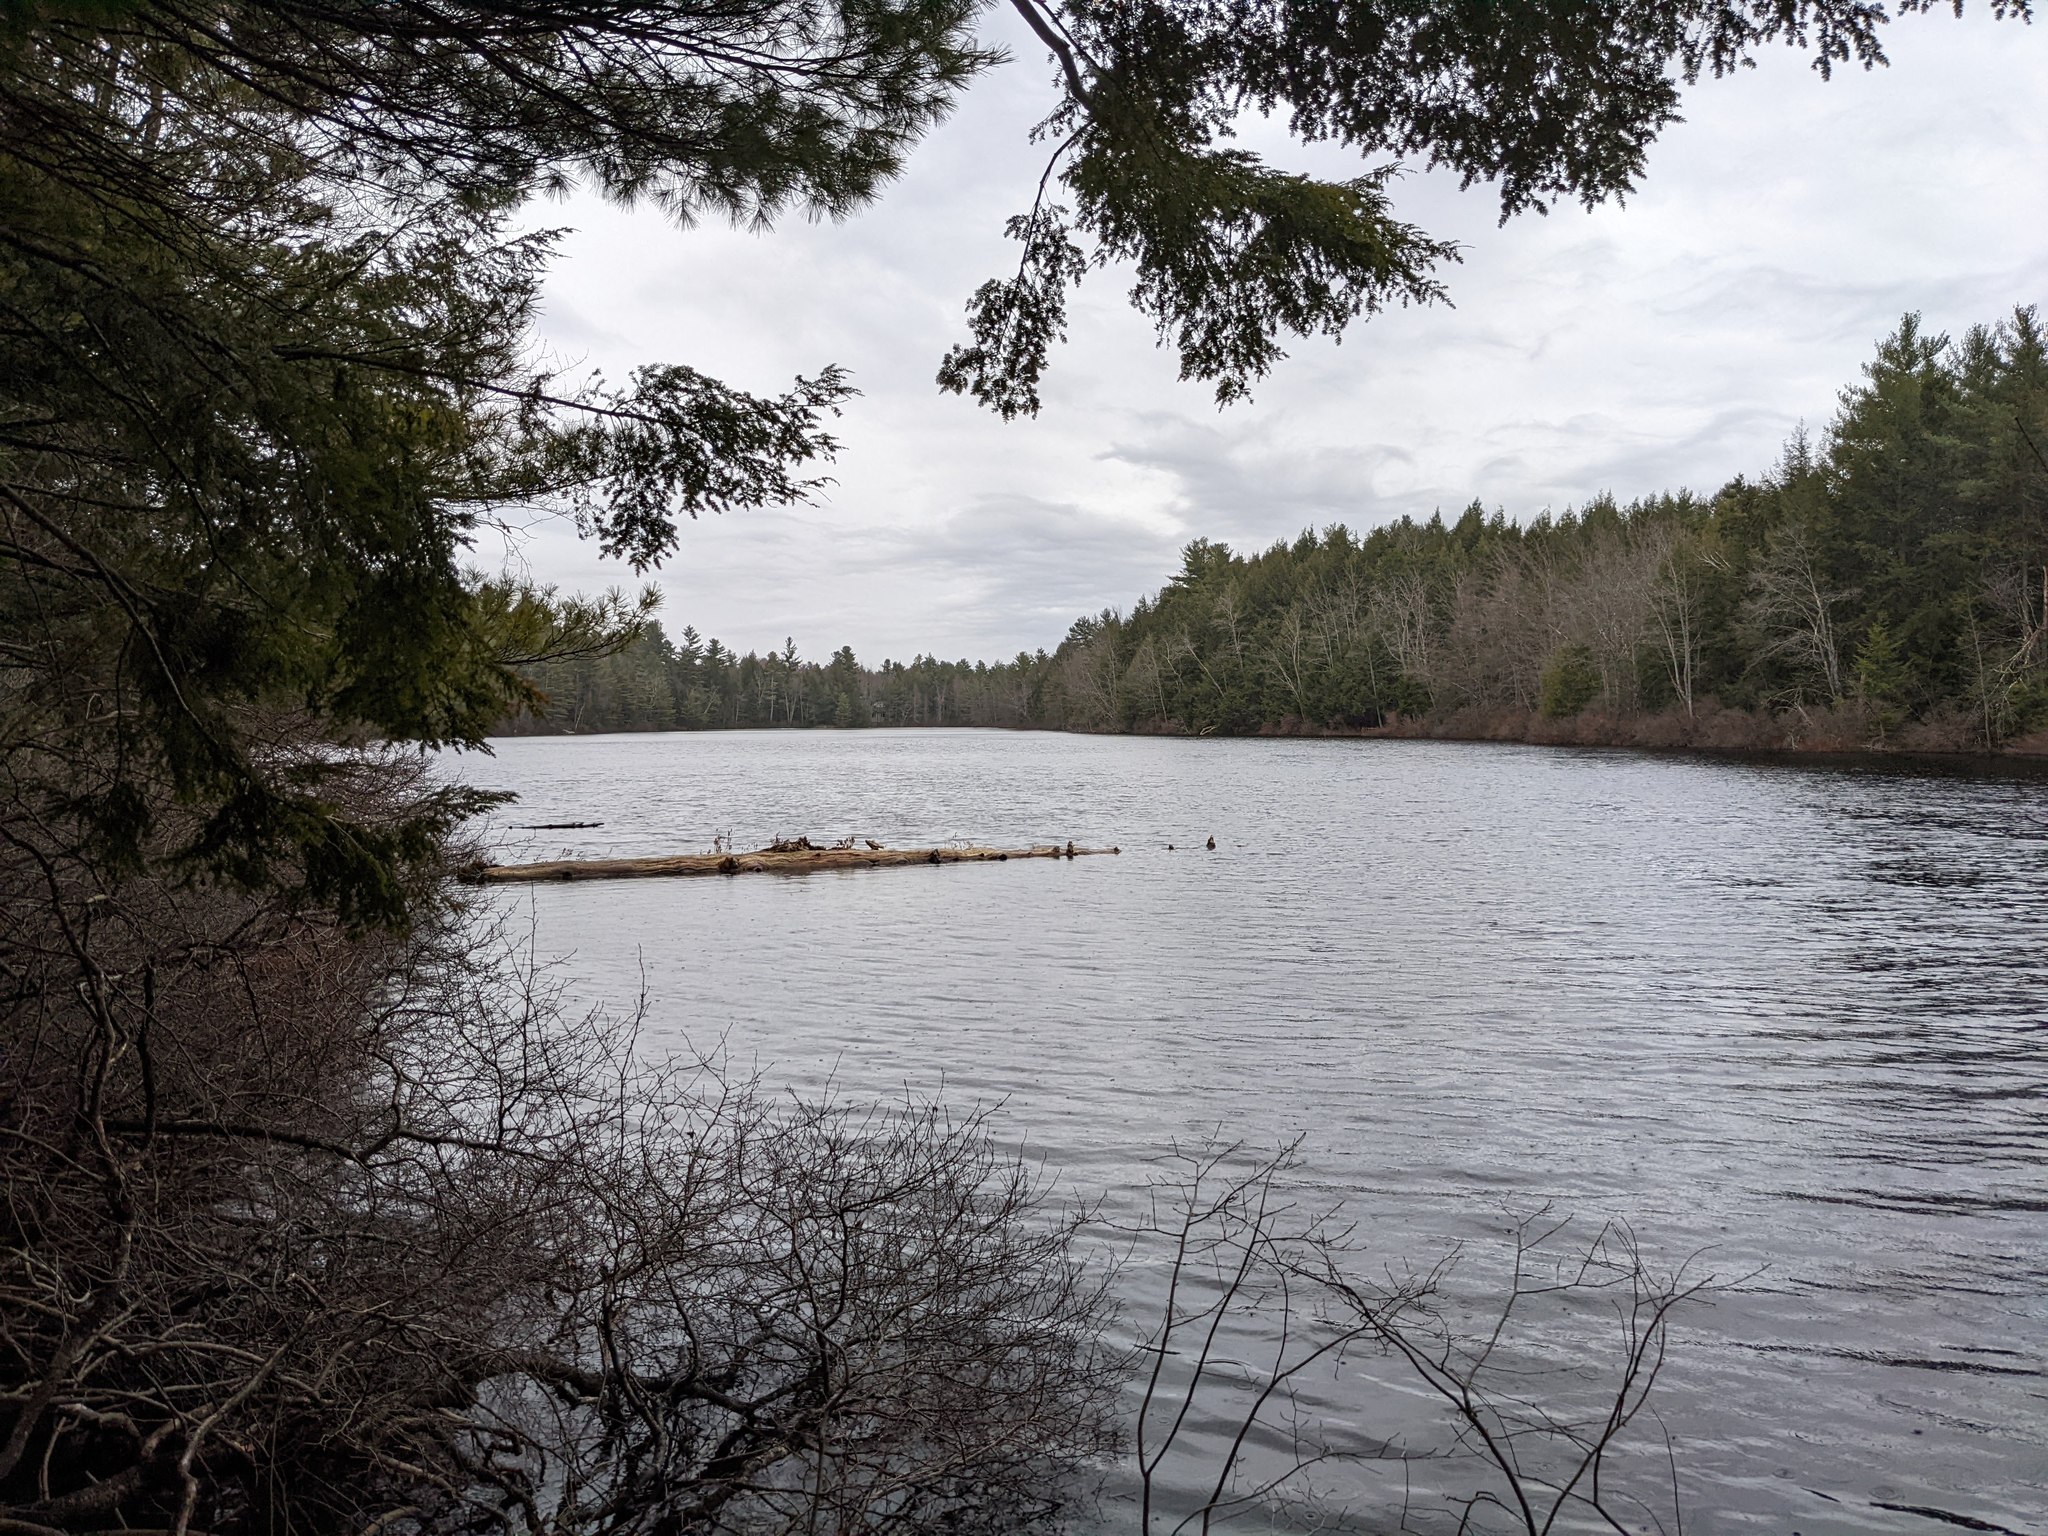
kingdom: Plantae
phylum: Tracheophyta
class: Pinopsida
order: Pinales
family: Pinaceae
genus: Pinus
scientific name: Pinus strobus
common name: Weymouth pine
